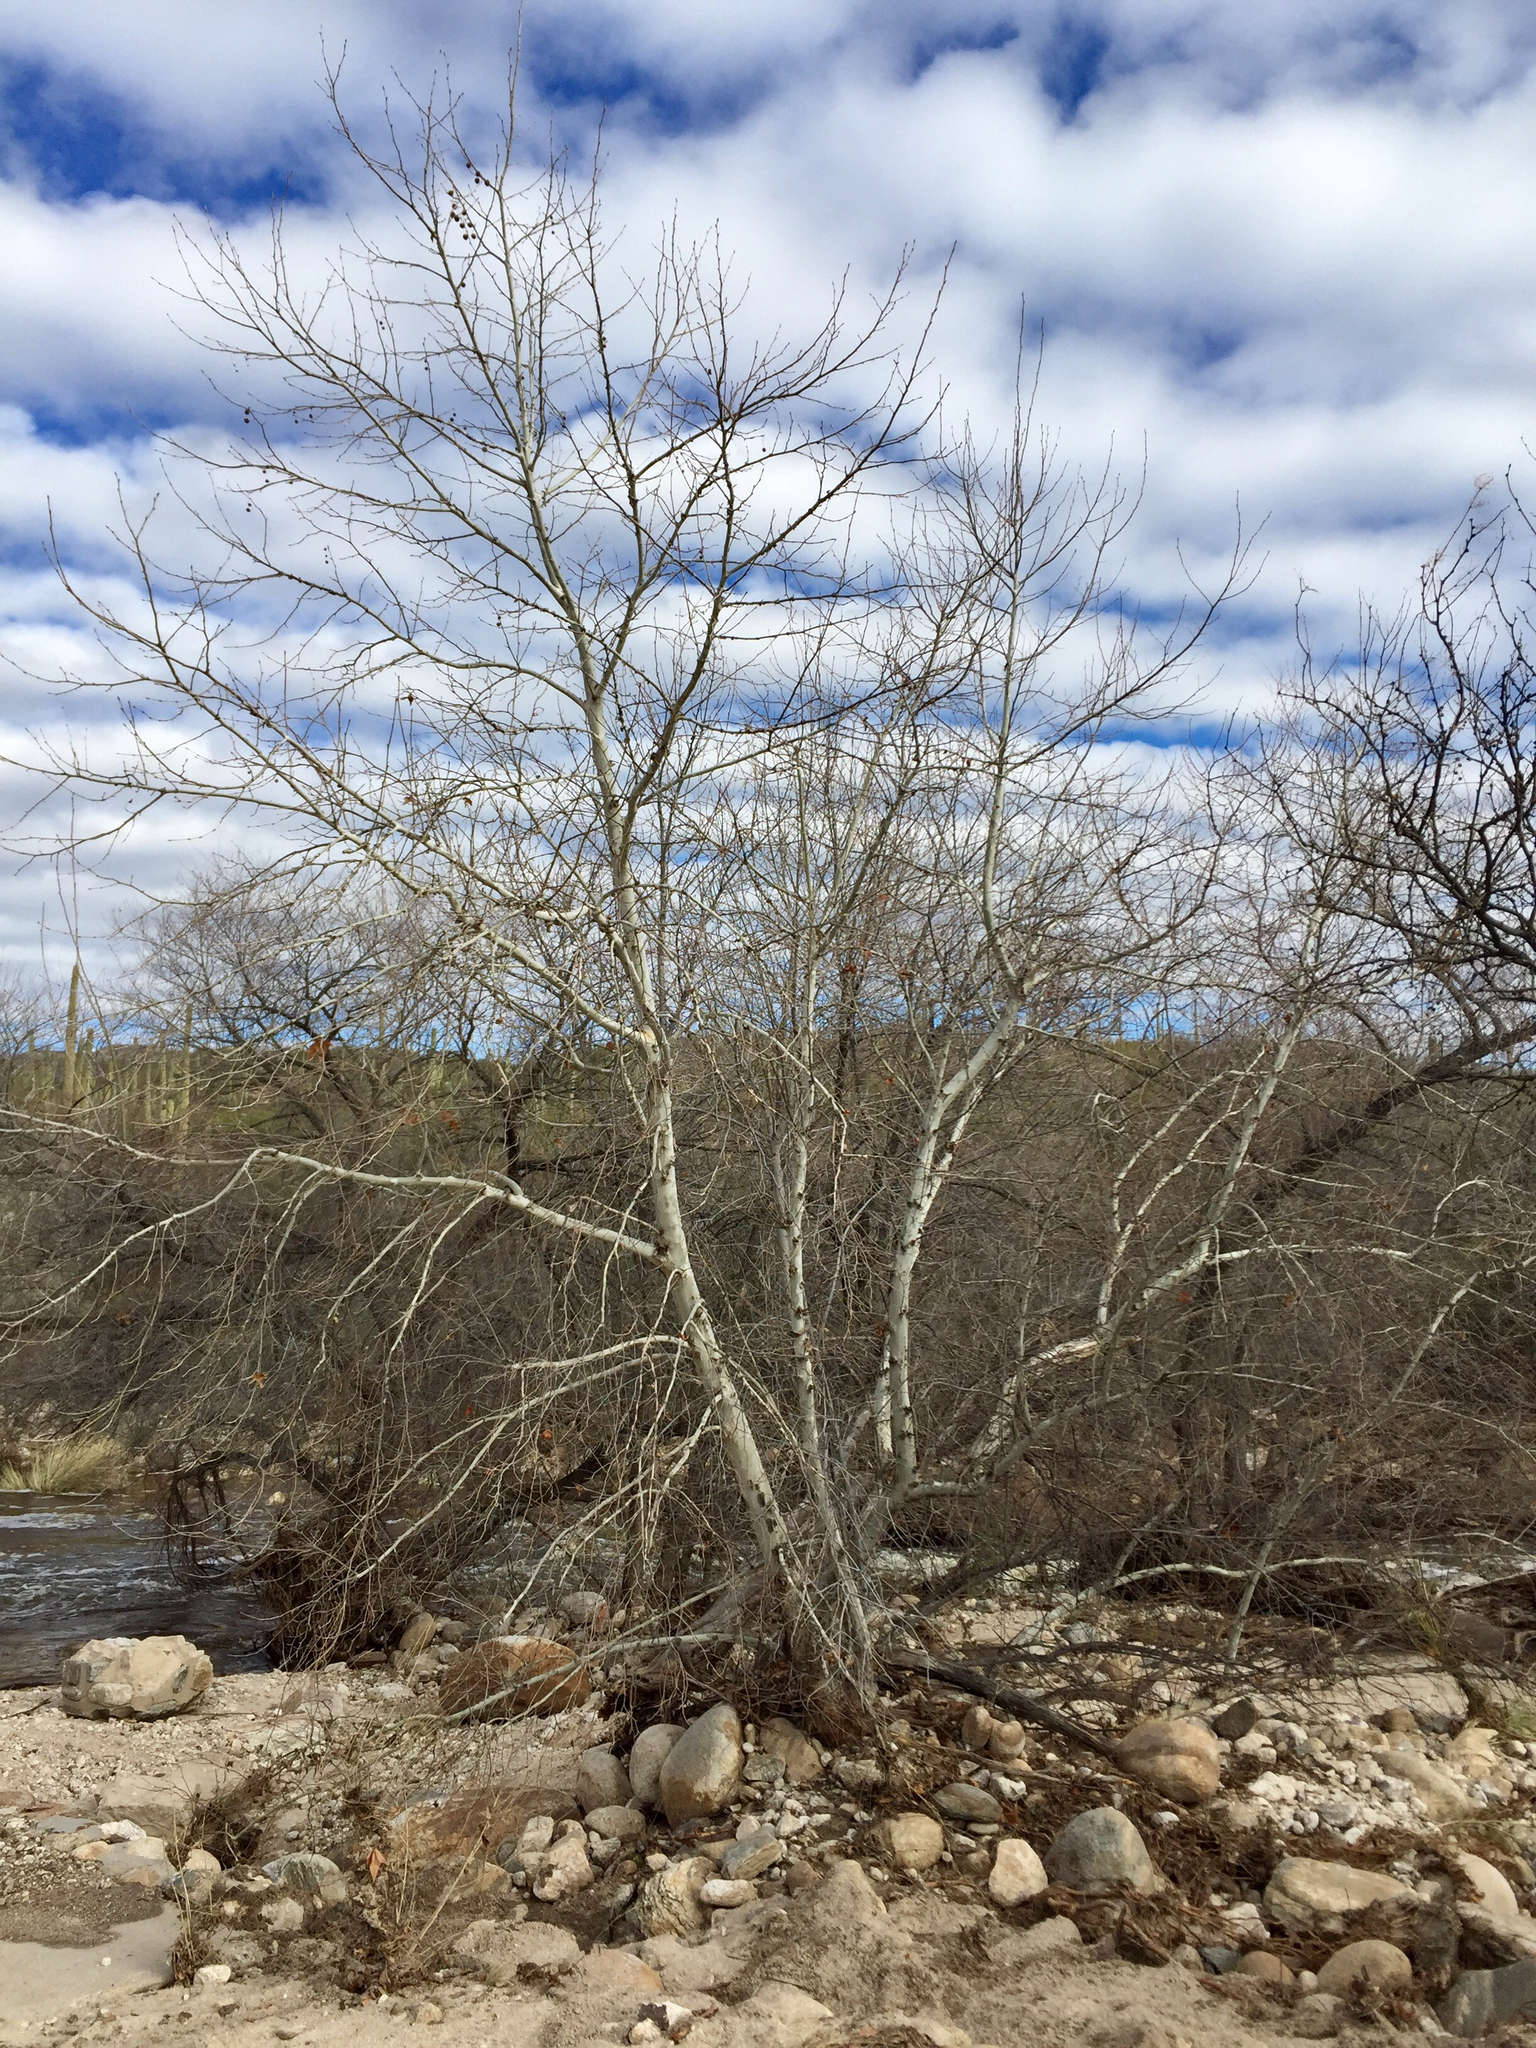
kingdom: Plantae
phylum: Tracheophyta
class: Magnoliopsida
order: Proteales
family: Platanaceae
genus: Platanus
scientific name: Platanus wrightii
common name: Arizona sycamore
